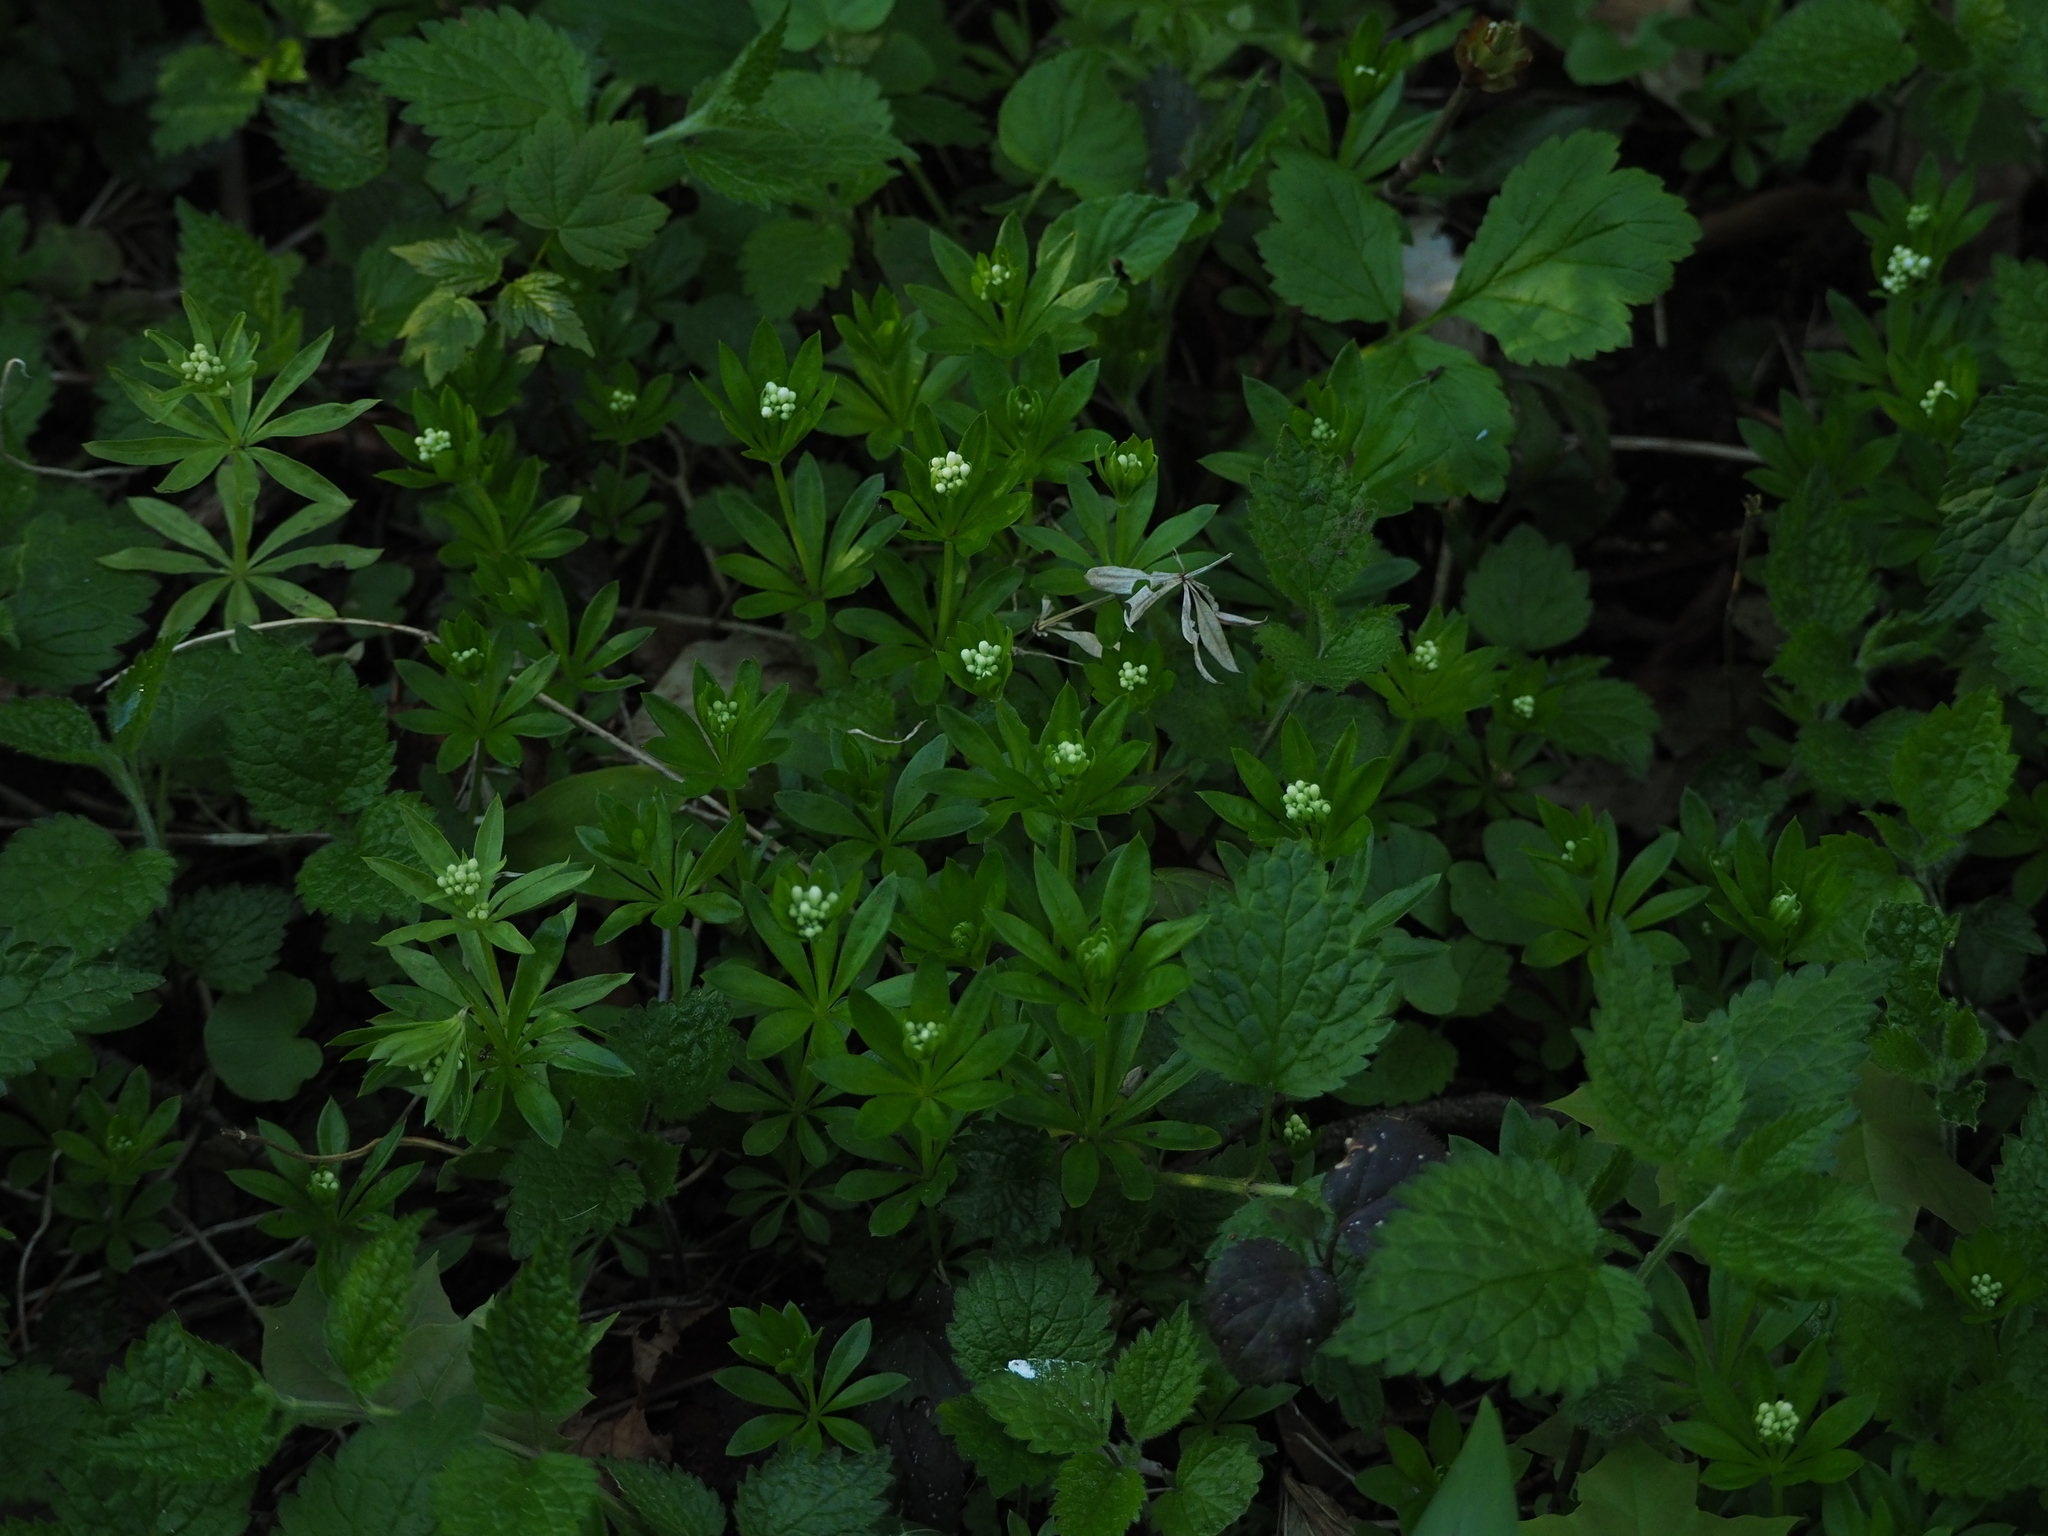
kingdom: Plantae
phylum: Tracheophyta
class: Magnoliopsida
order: Gentianales
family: Rubiaceae
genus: Galium
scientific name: Galium odoratum
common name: Sweet woodruff
